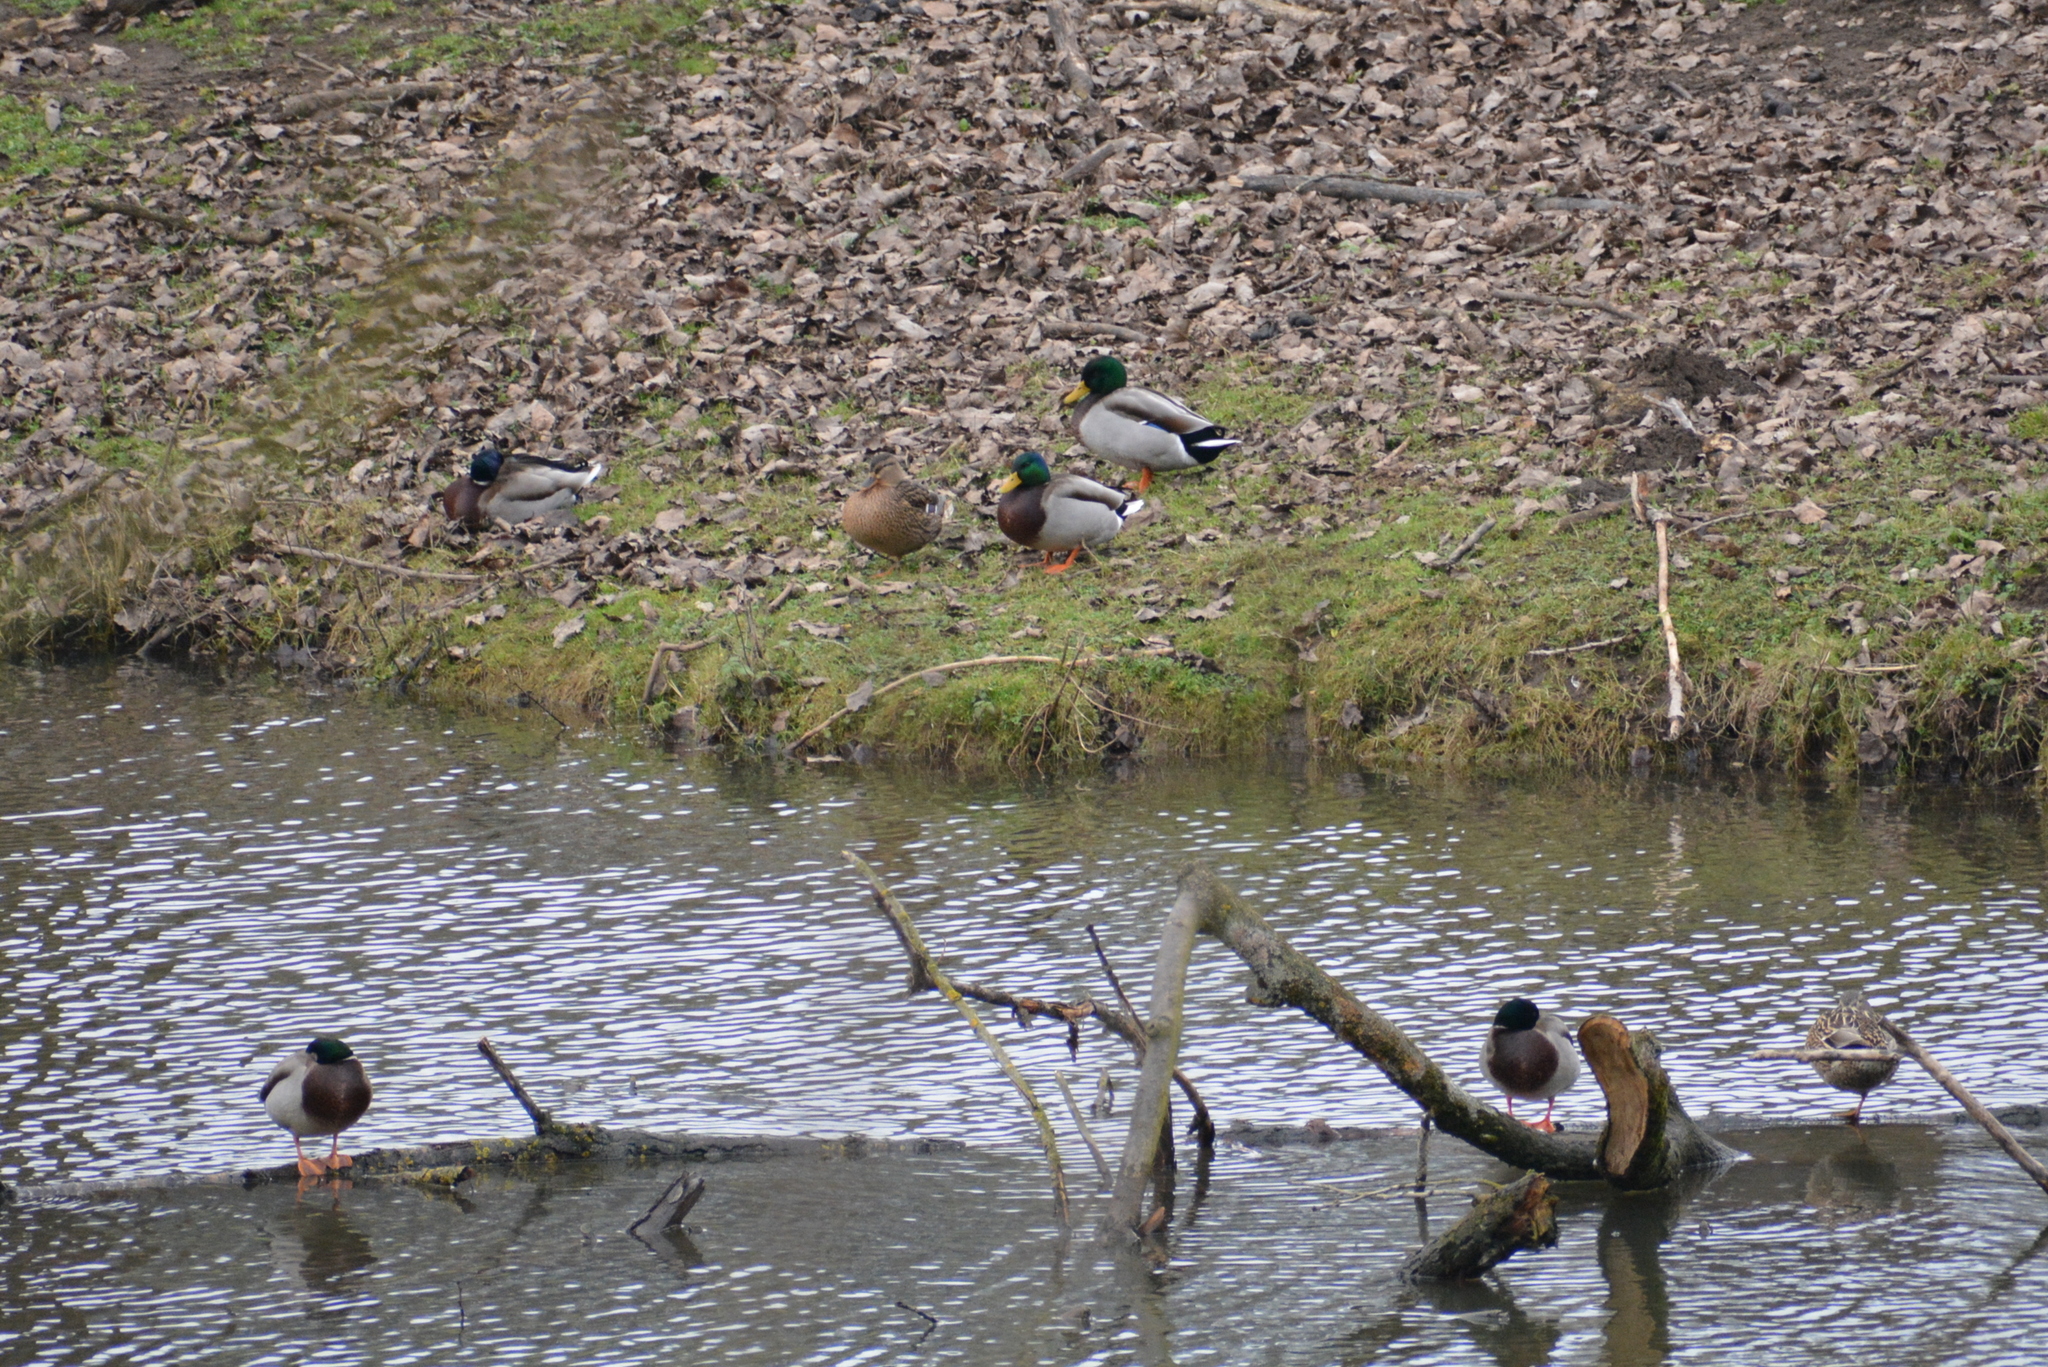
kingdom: Animalia
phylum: Chordata
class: Aves
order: Anseriformes
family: Anatidae
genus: Anas
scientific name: Anas platyrhynchos
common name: Mallard
